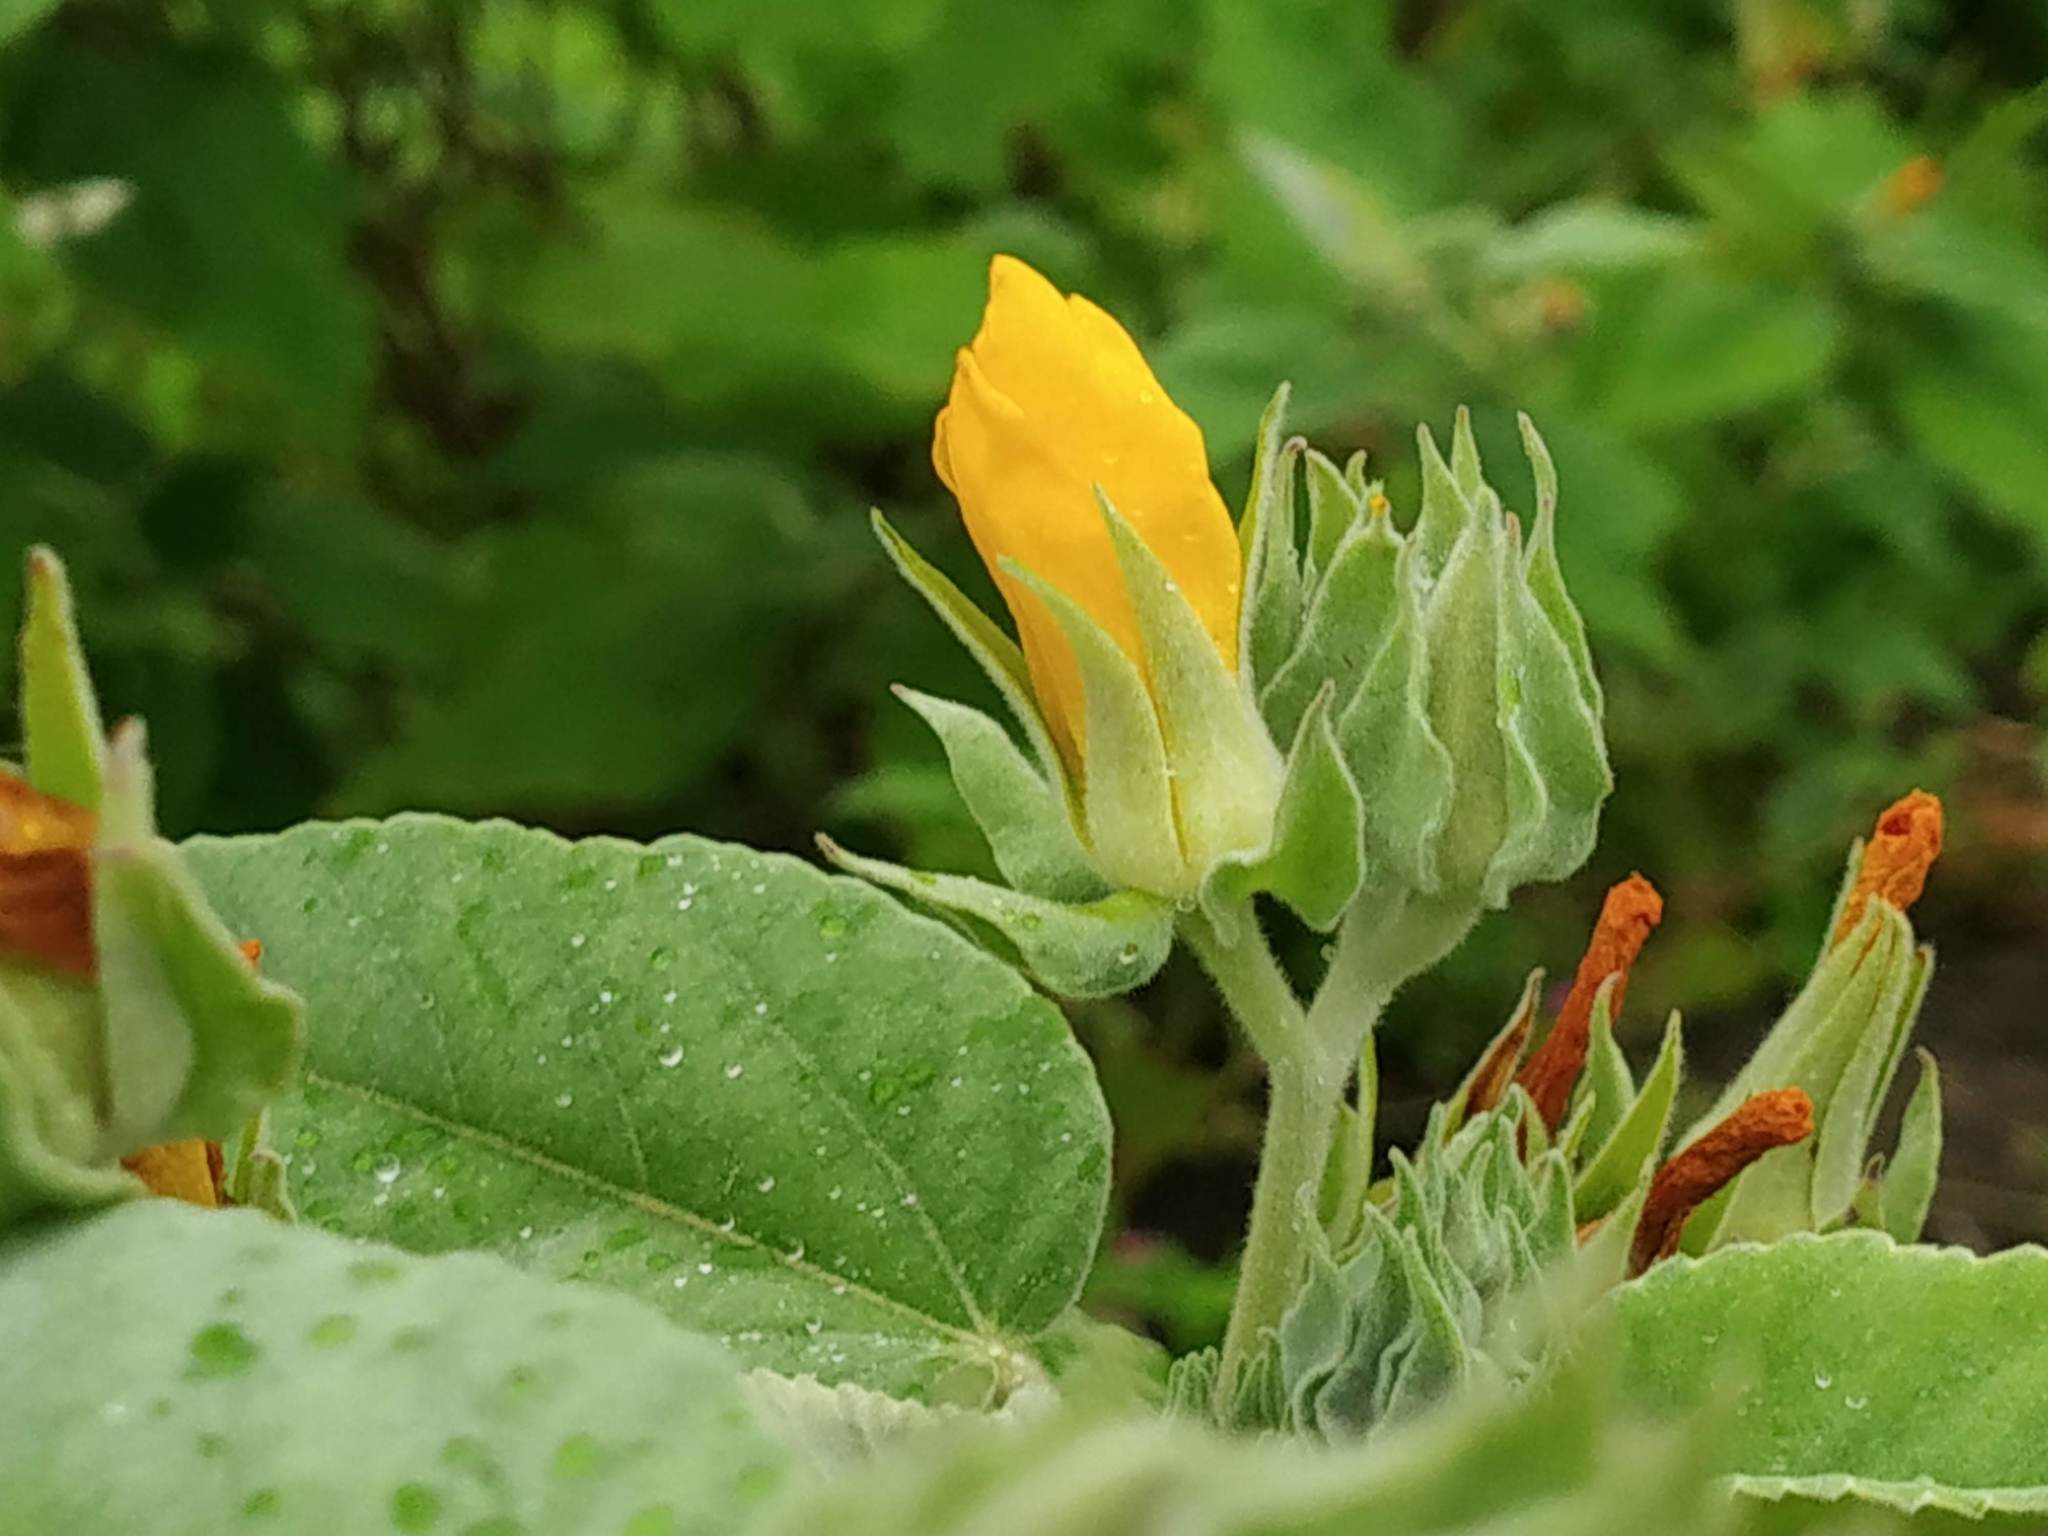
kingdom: Plantae
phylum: Tracheophyta
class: Magnoliopsida
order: Malvales
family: Malvaceae
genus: Melhania
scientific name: Melhania futteyporensis
